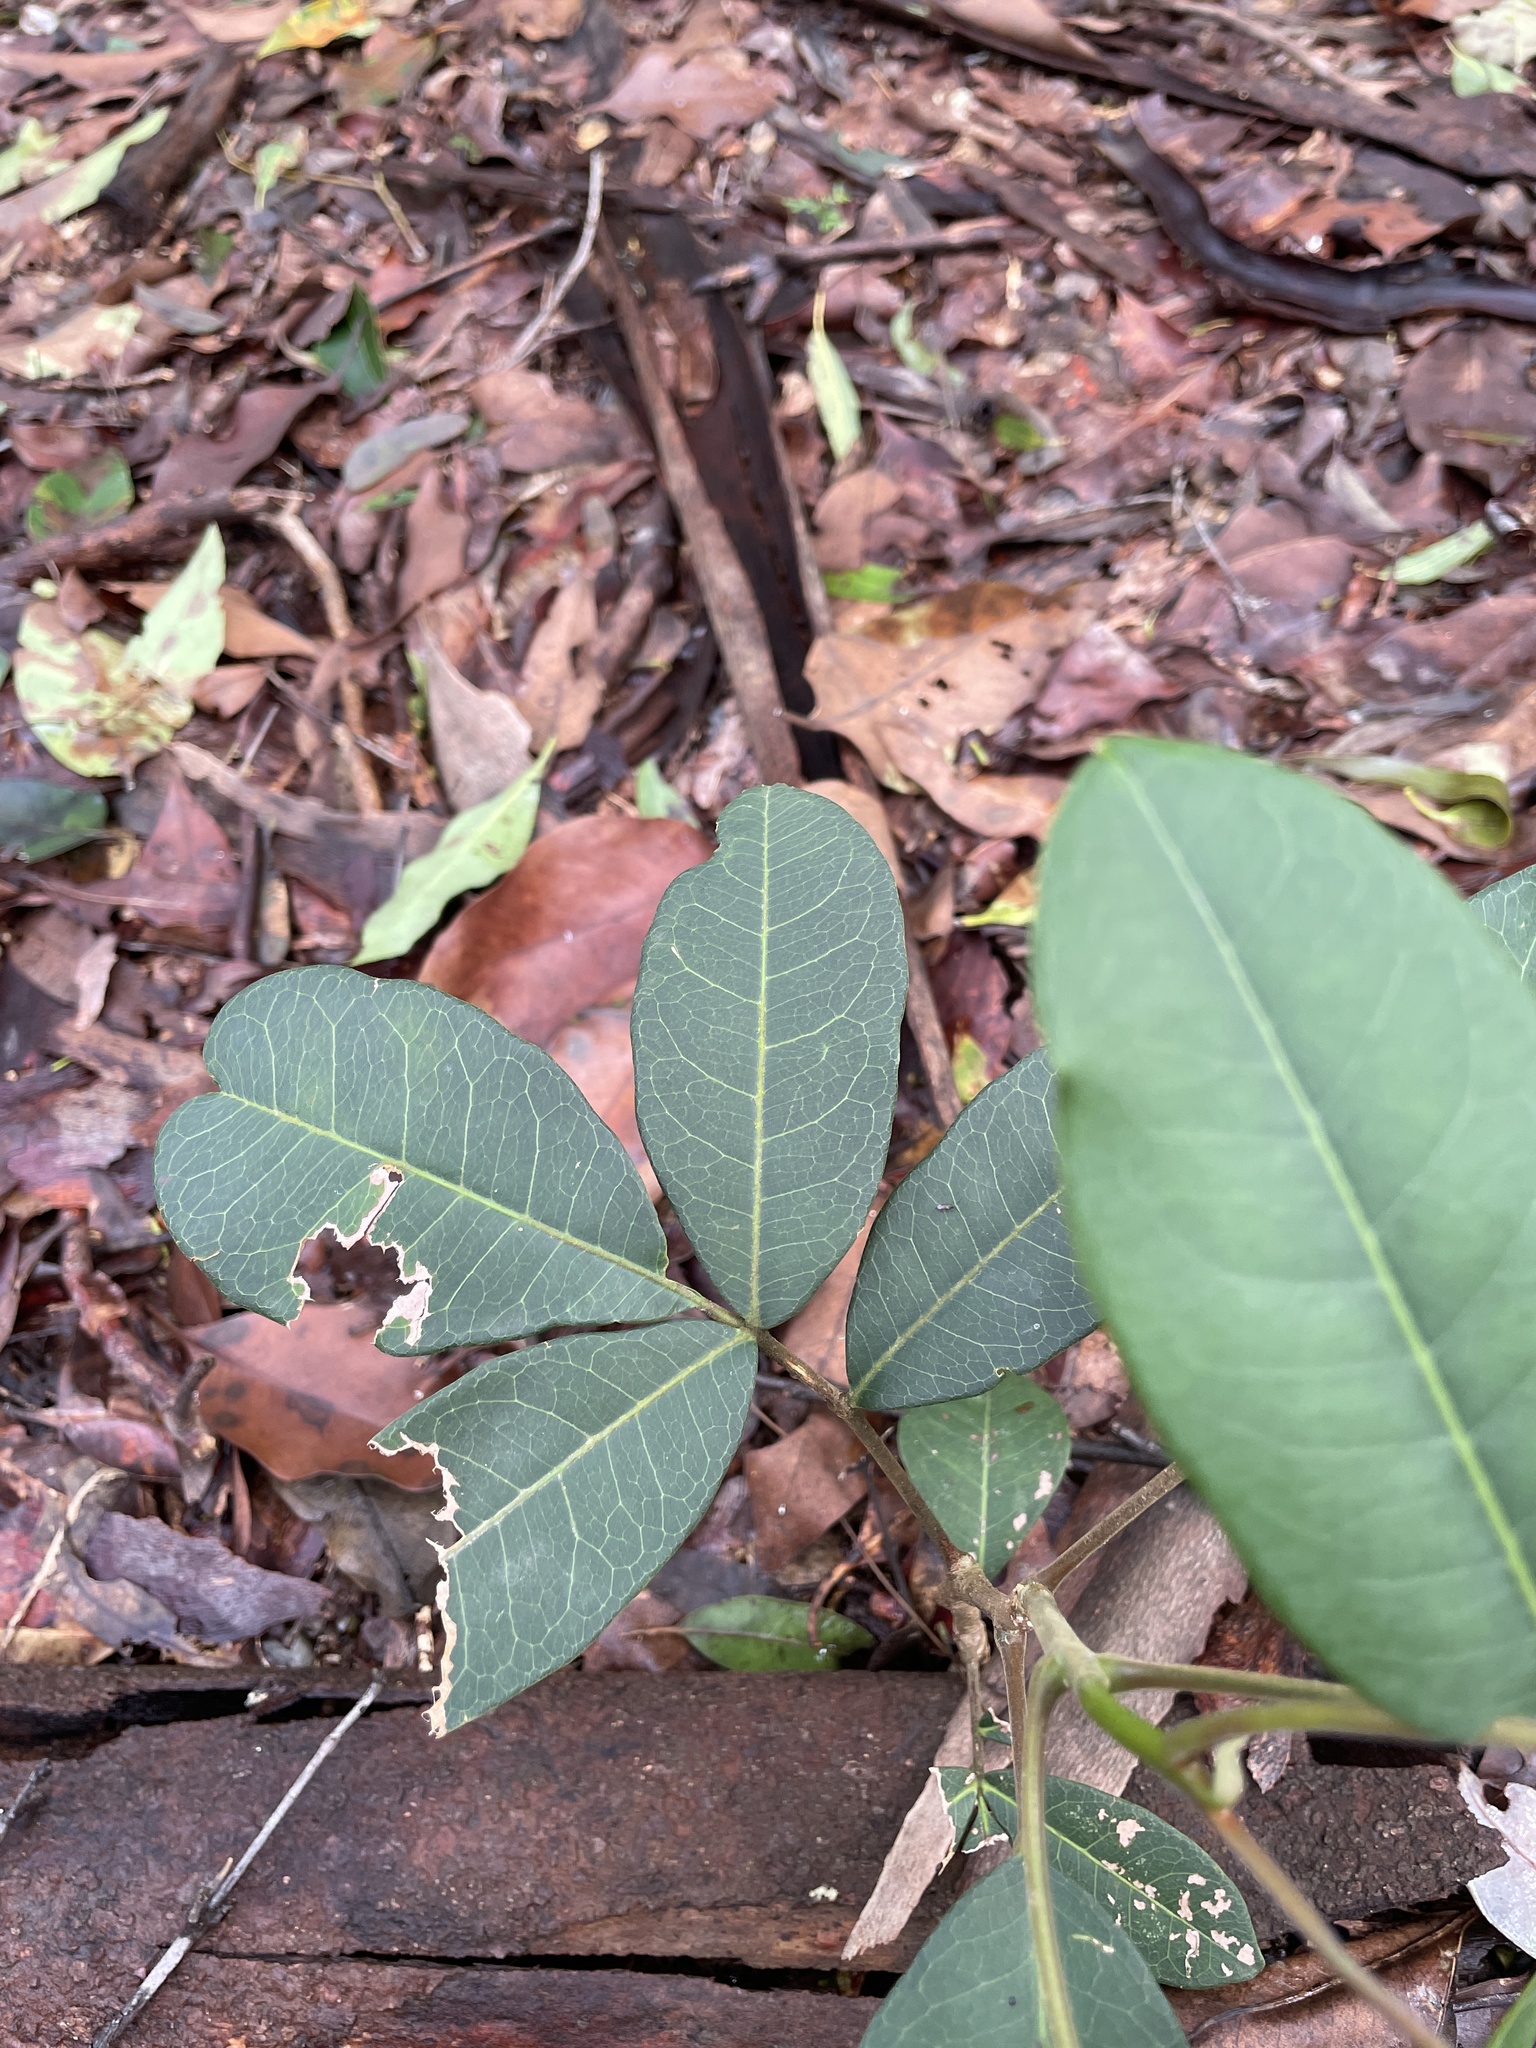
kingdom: Plantae
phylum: Tracheophyta
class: Magnoliopsida
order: Sapindales
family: Rutaceae
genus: Flindersia
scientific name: Flindersia australis
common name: Australian-teak
